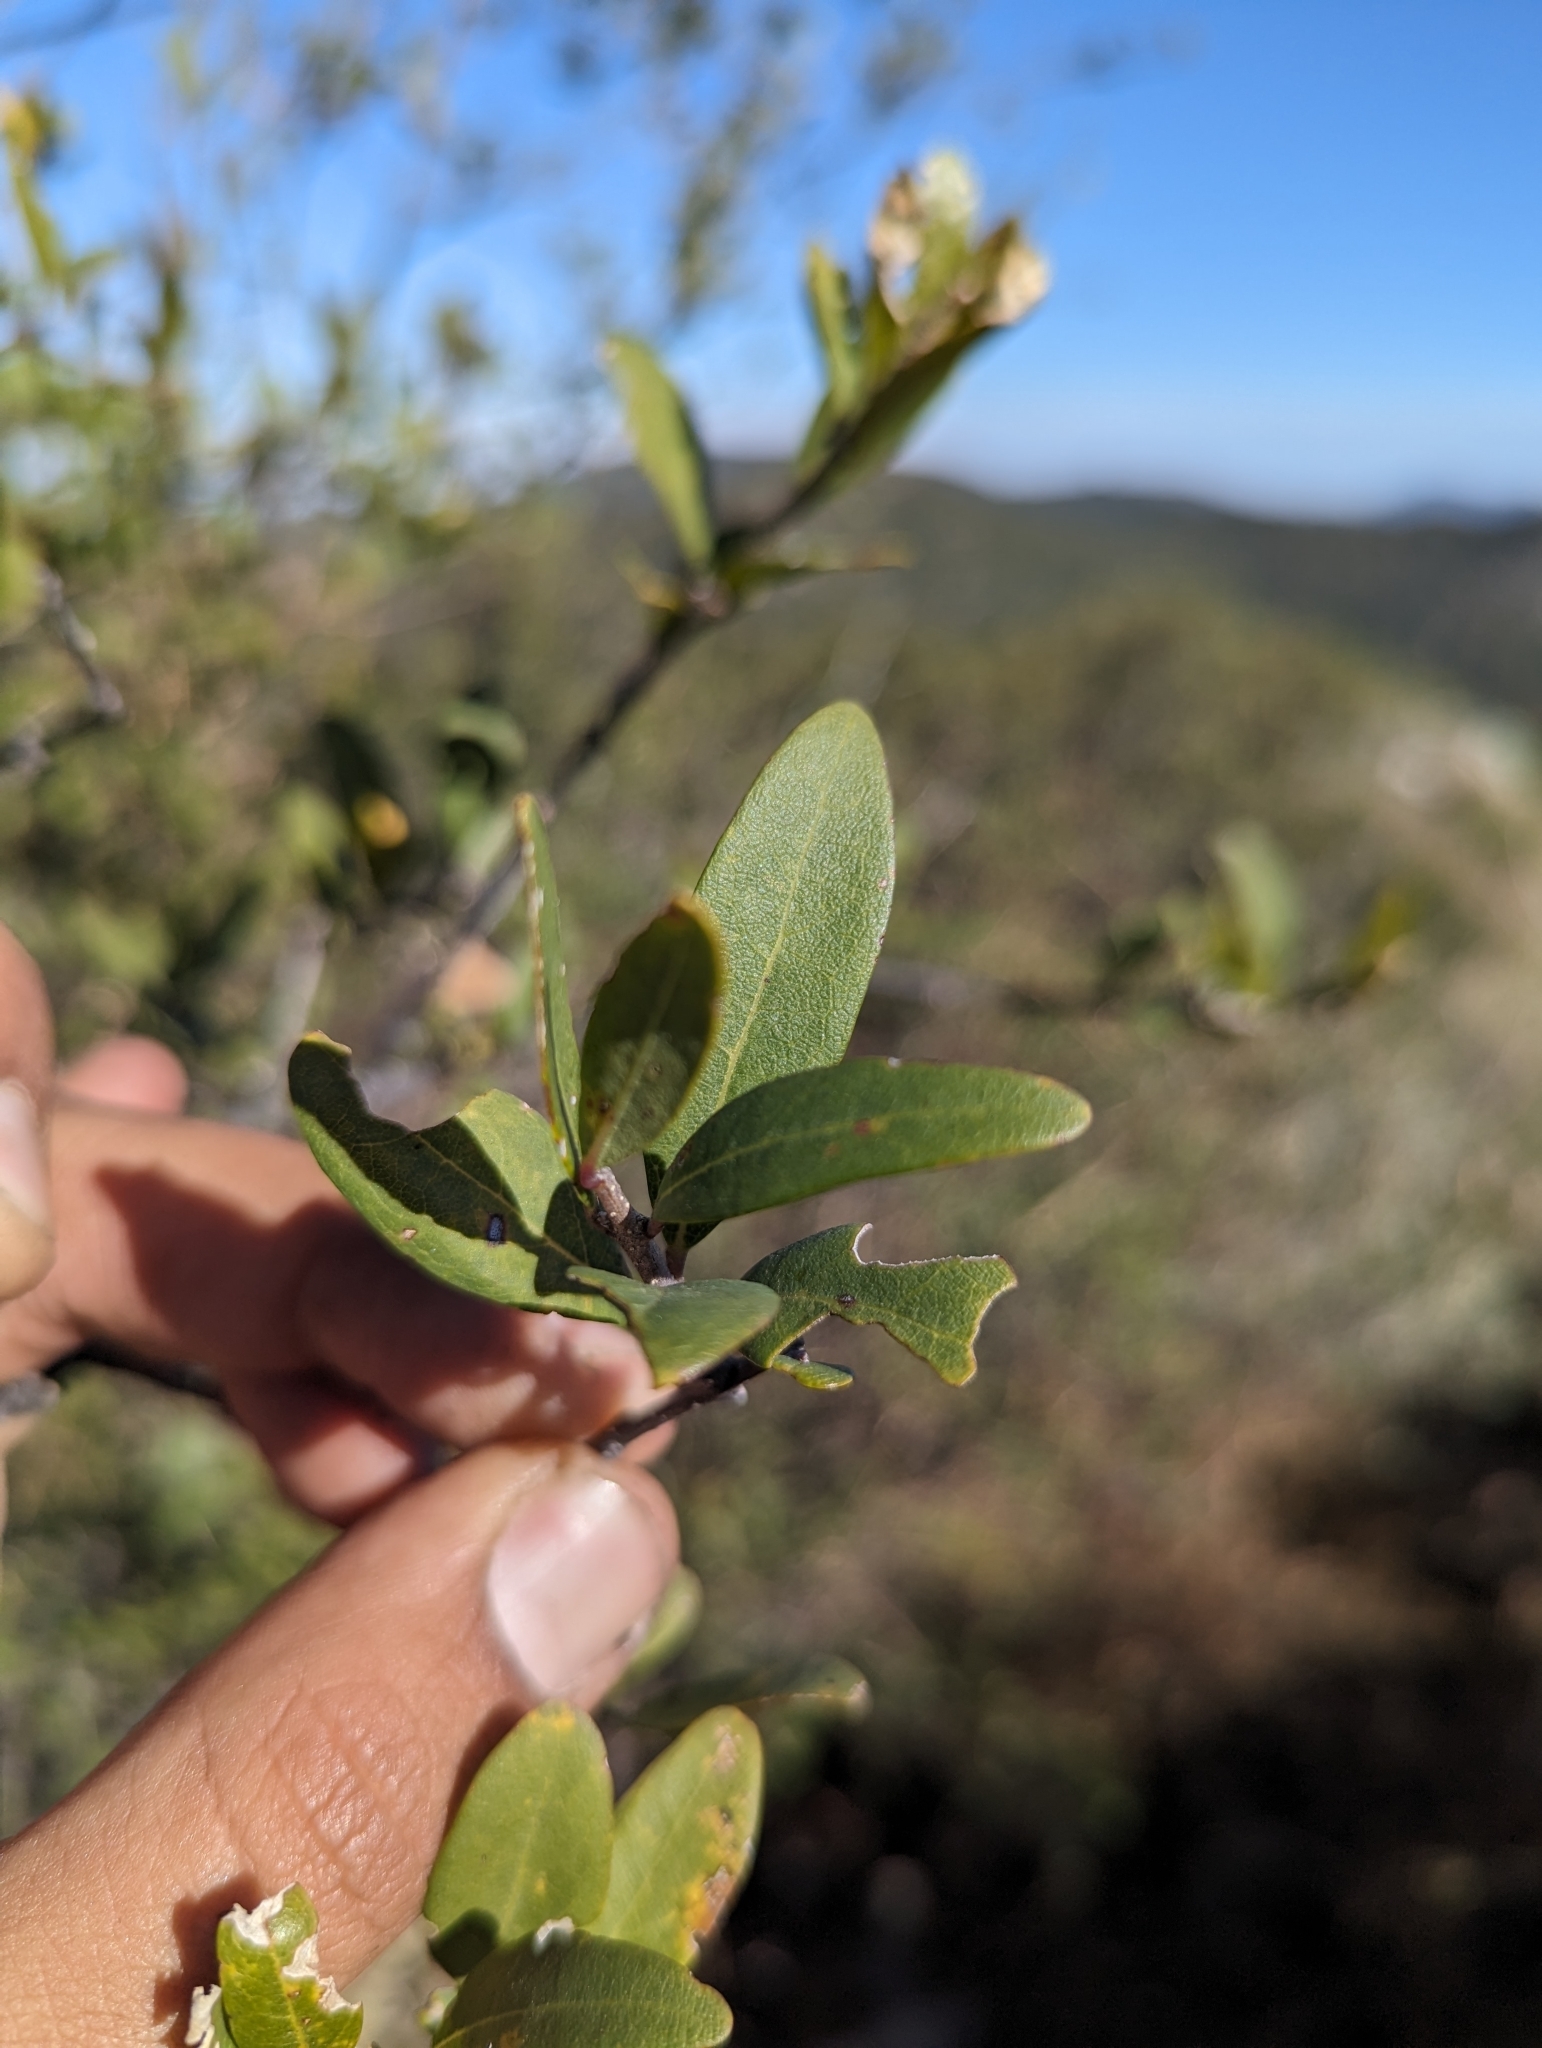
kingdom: Plantae
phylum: Tracheophyta
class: Magnoliopsida
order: Lamiales
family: Oleaceae
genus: Forestiera
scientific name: Forestiera macrocarpa
